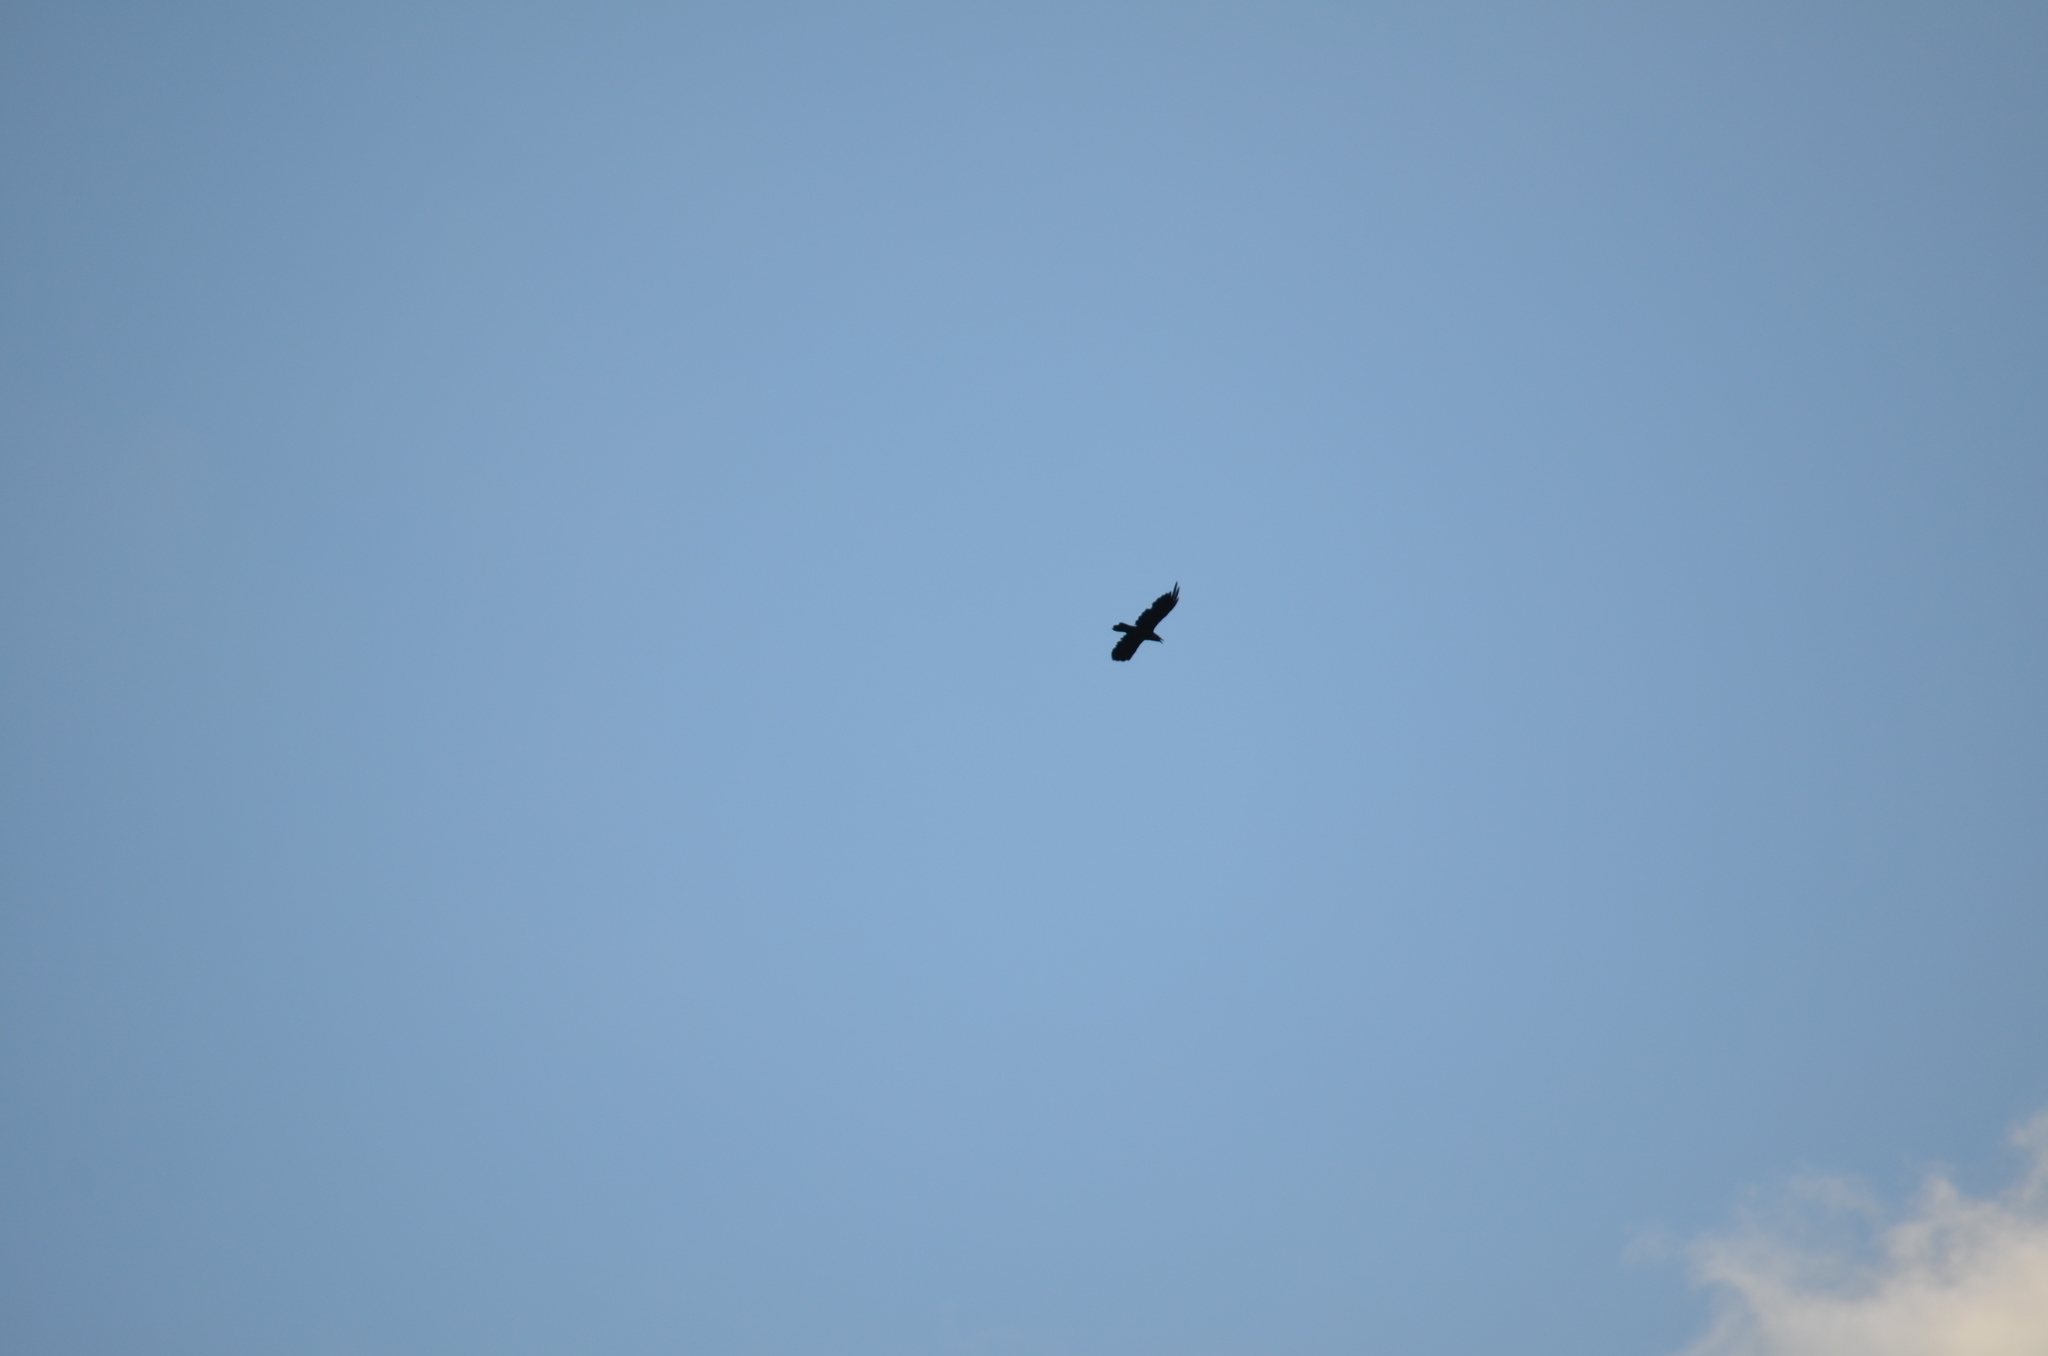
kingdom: Animalia
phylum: Chordata
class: Aves
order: Passeriformes
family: Corvidae
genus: Corvus
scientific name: Corvus corax
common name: Common raven
